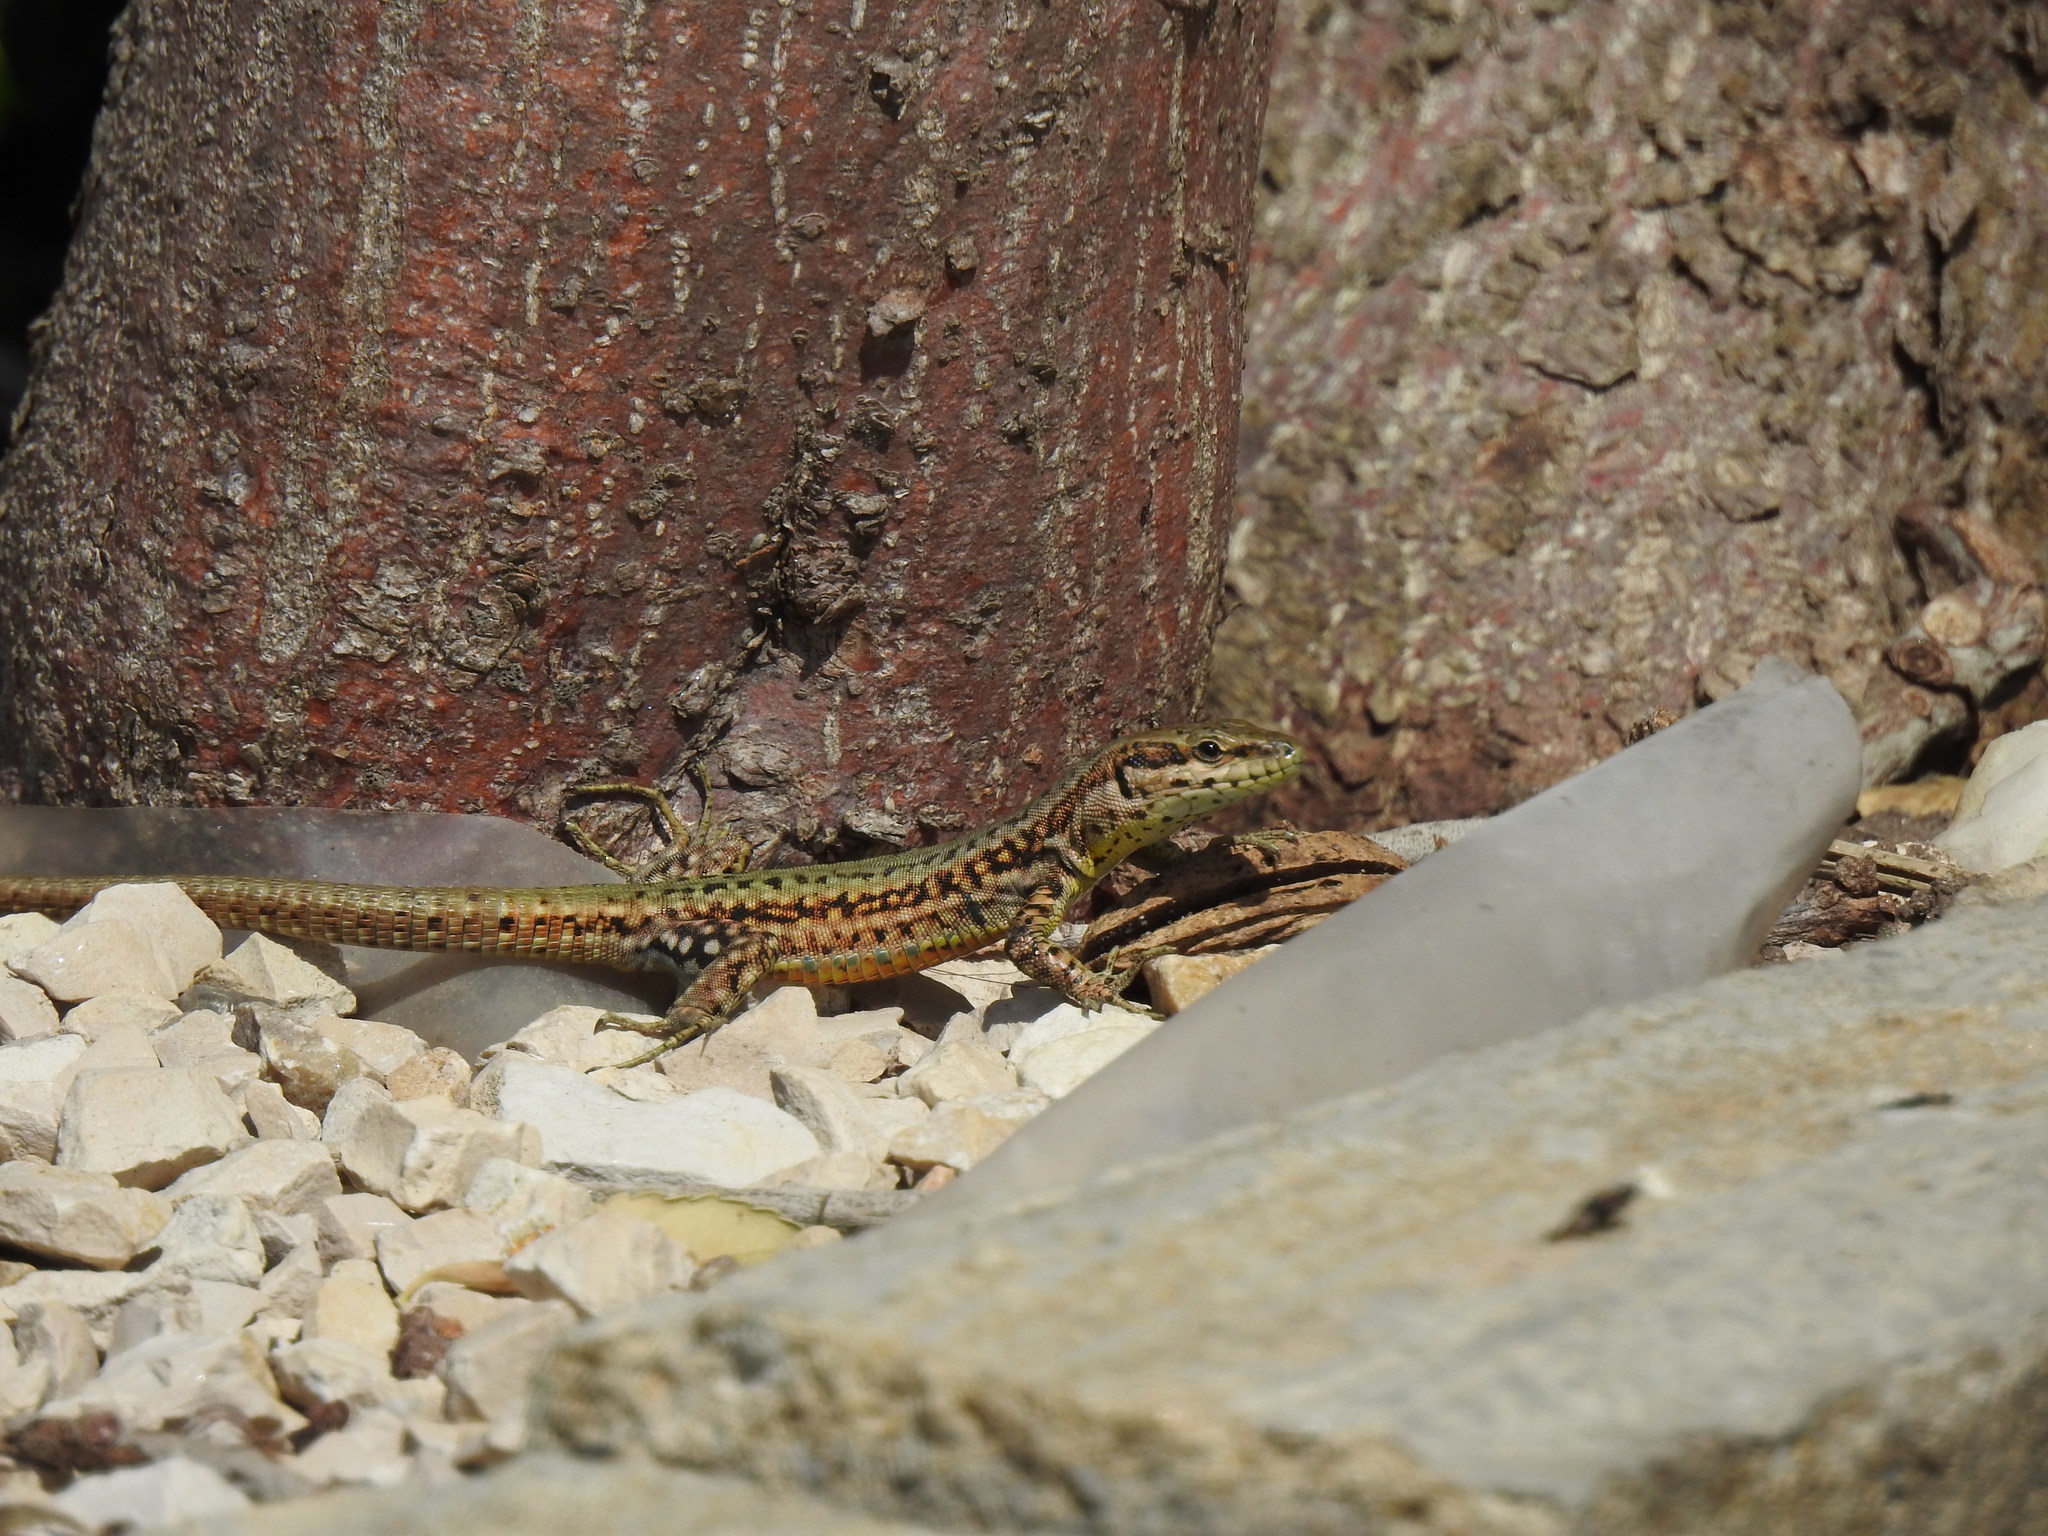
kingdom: Animalia
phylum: Chordata
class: Squamata
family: Lacertidae
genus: Podarcis
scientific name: Podarcis virescens
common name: Geniez’s wall lizard
